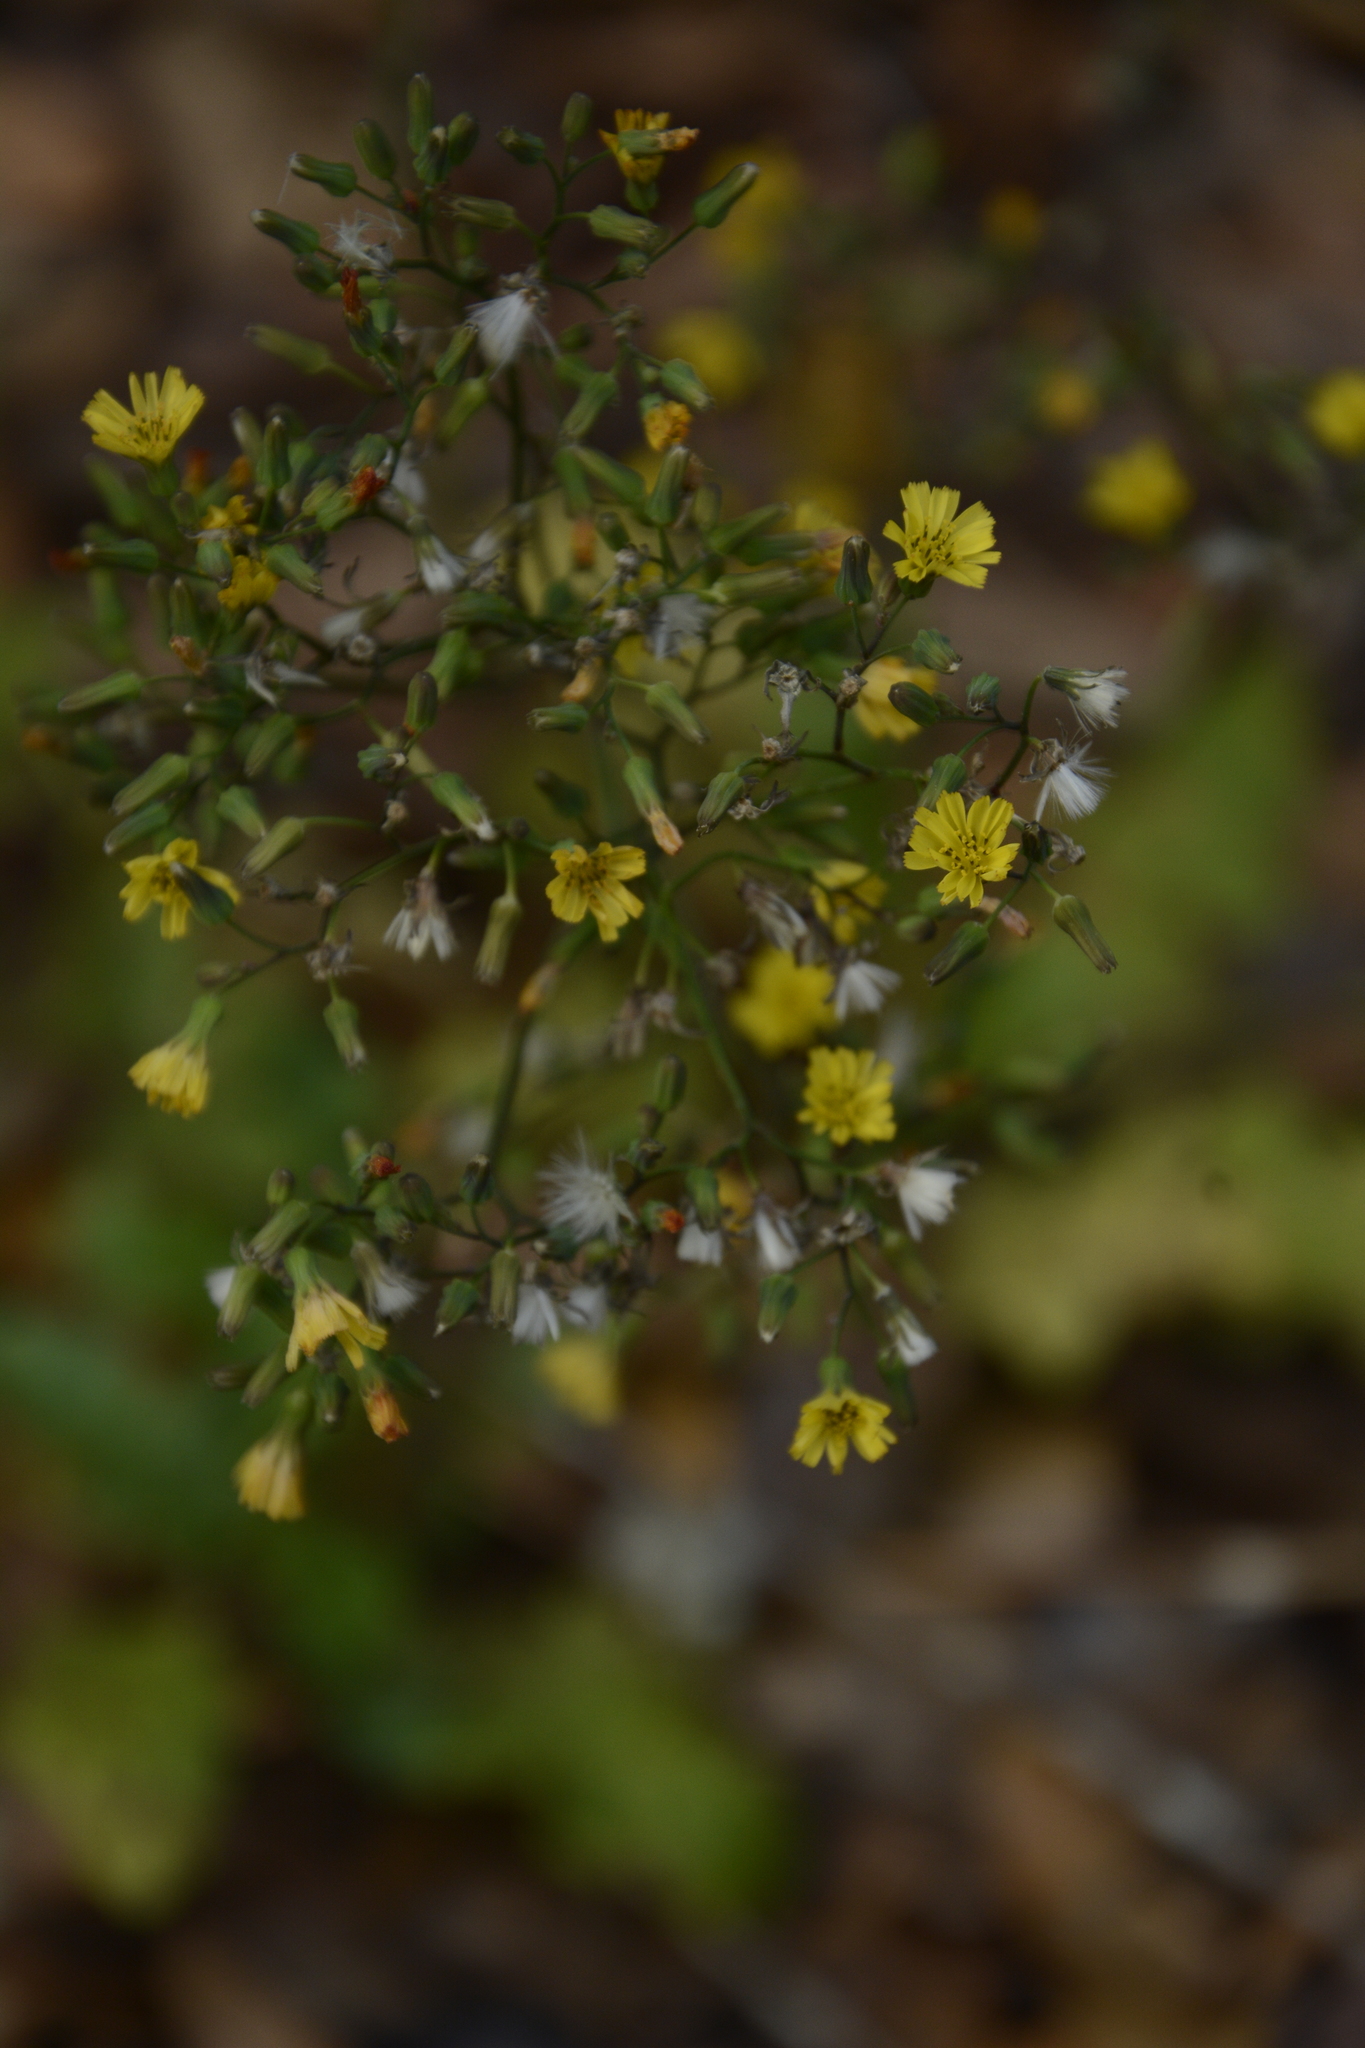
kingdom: Plantae
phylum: Tracheophyta
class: Magnoliopsida
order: Asterales
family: Asteraceae
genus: Youngia
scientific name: Youngia japonica
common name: Oriental false hawksbeard
